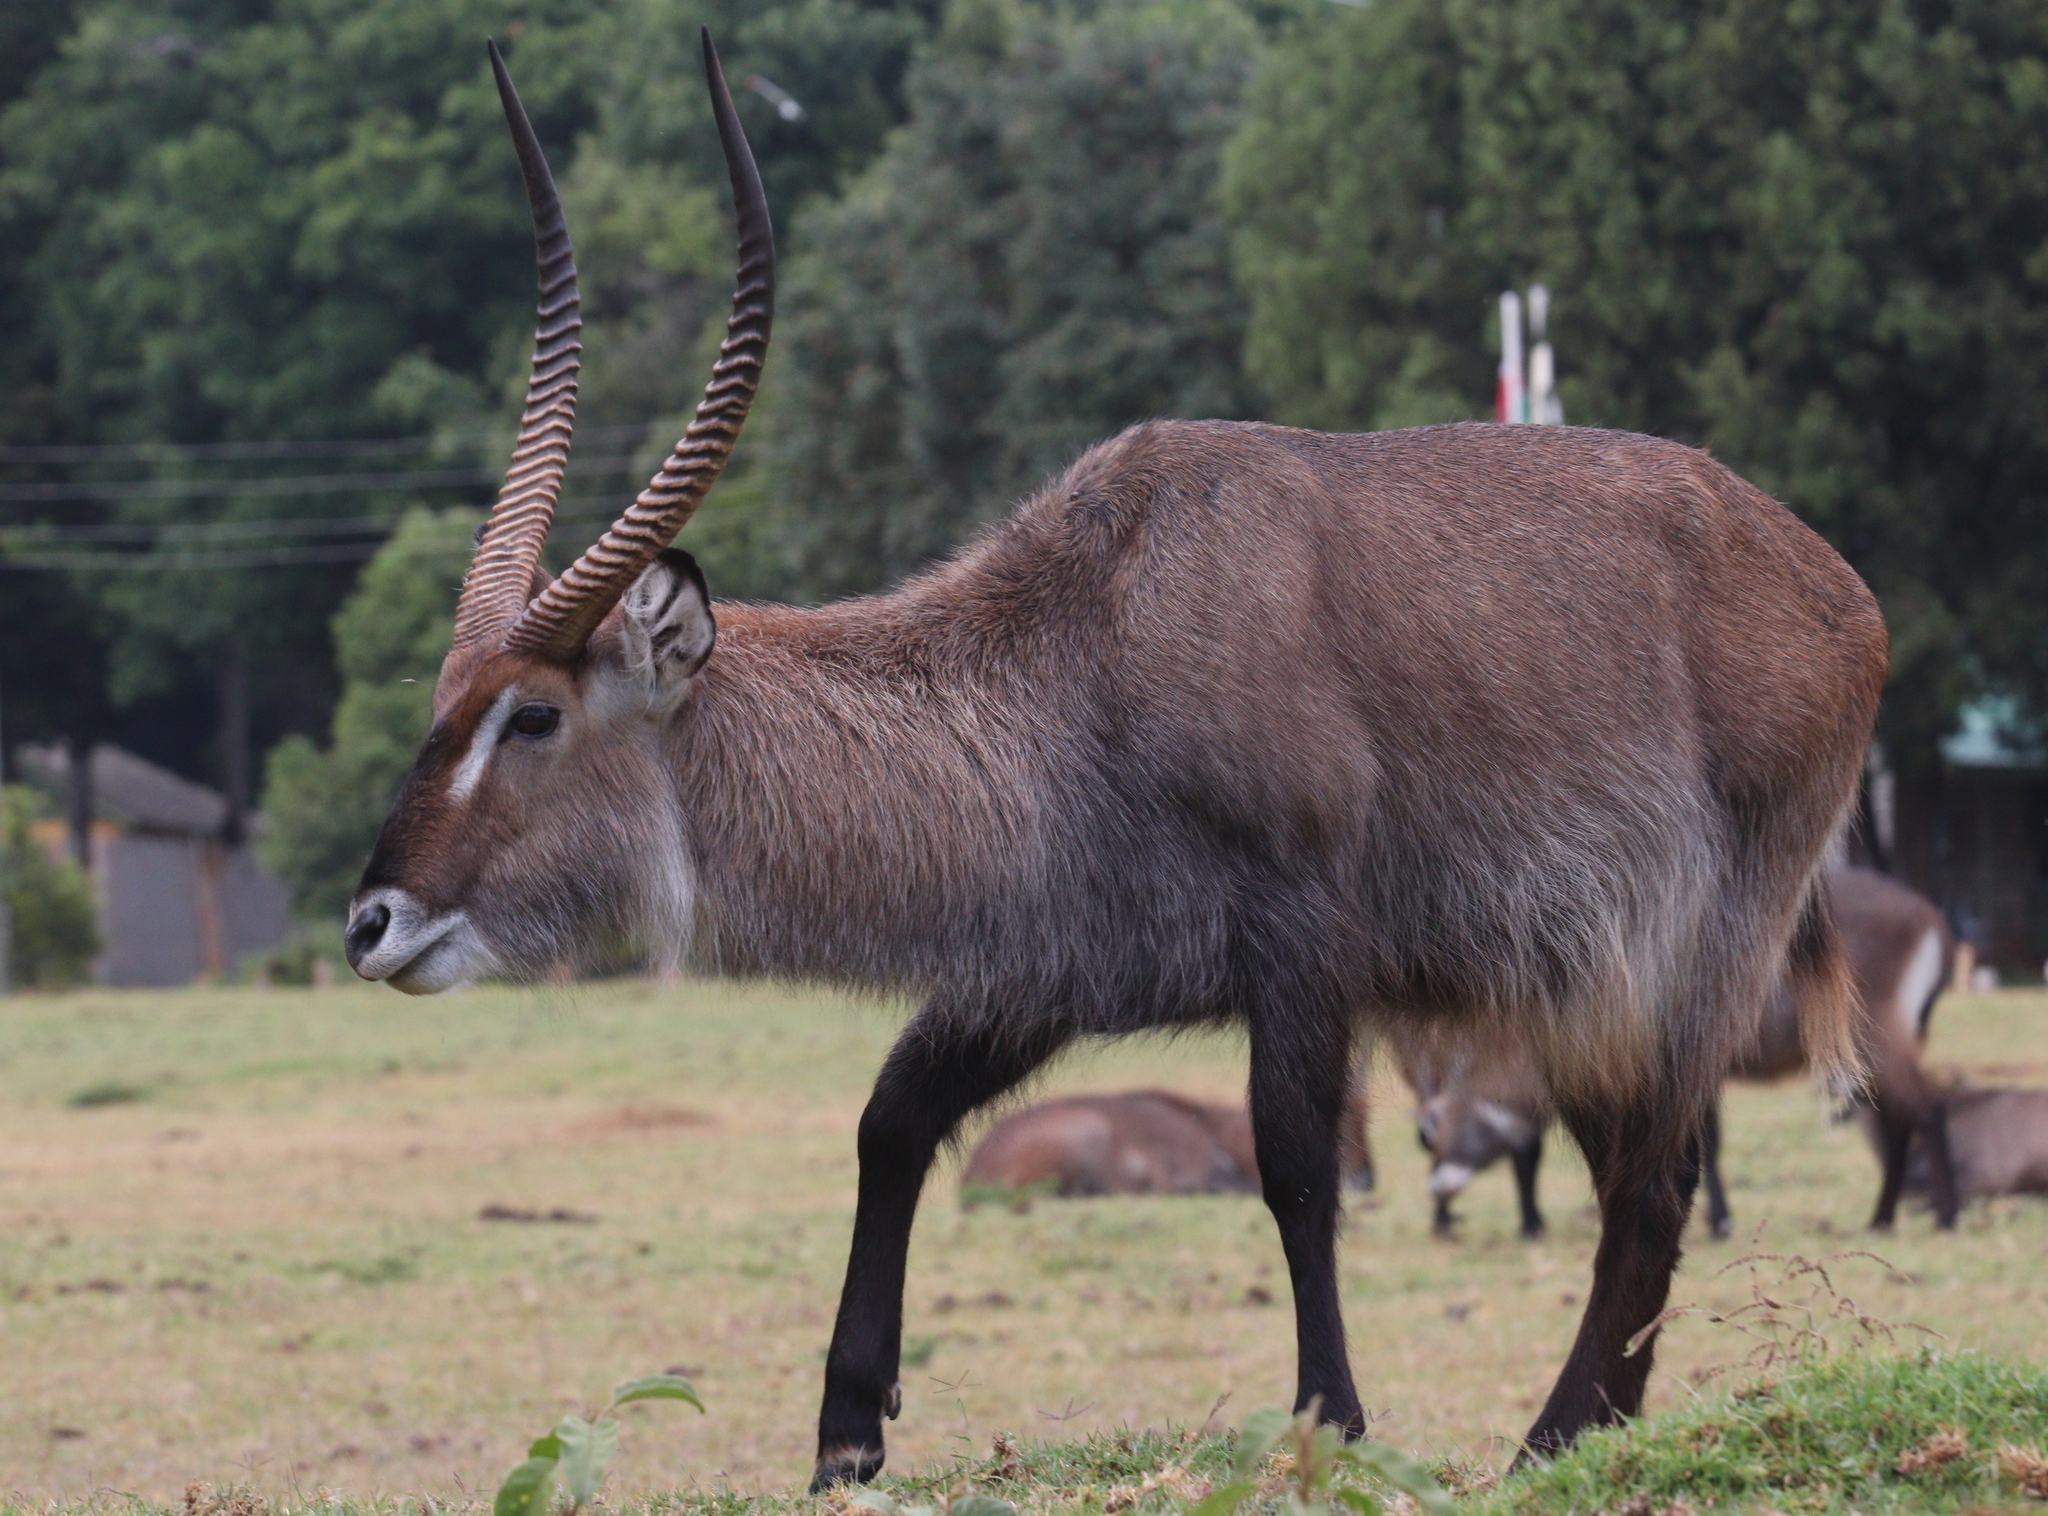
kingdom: Animalia
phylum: Chordata
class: Mammalia
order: Artiodactyla
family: Bovidae
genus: Kobus
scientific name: Kobus ellipsiprymnus
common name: Waterbuck
